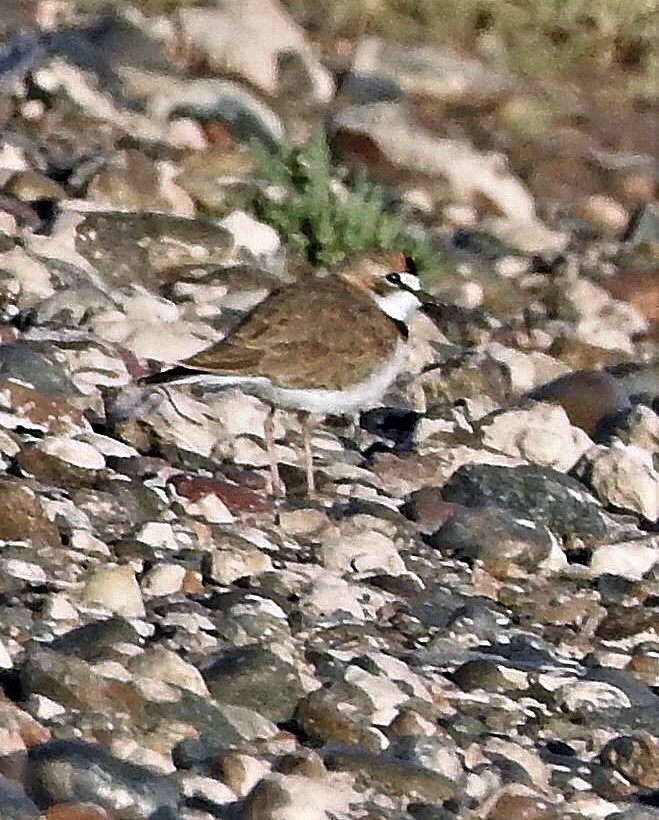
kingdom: Animalia
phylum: Chordata
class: Aves
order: Charadriiformes
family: Charadriidae
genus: Anarhynchus
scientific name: Anarhynchus
